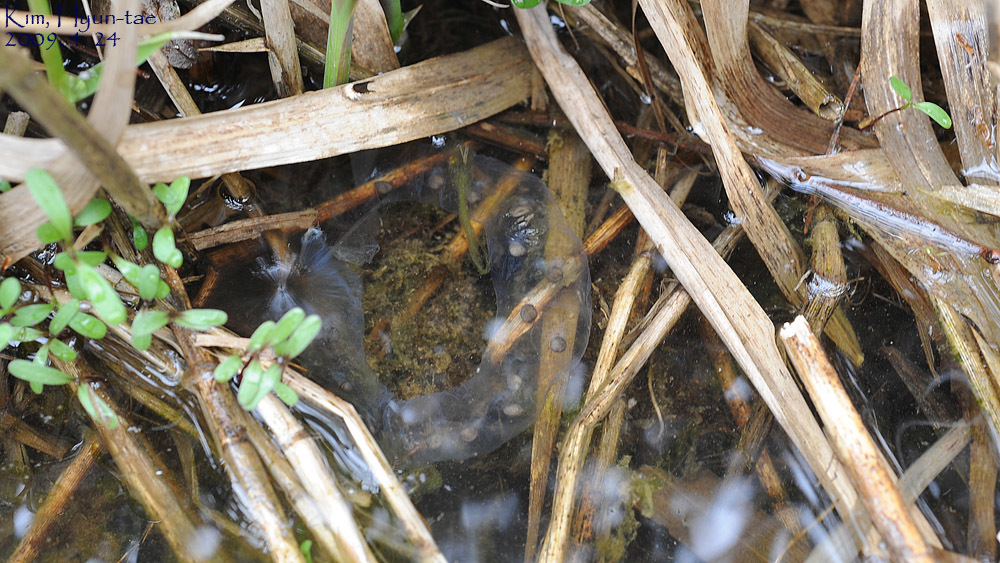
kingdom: Animalia
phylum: Chordata
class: Amphibia
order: Caudata
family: Hynobiidae
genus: Hynobius
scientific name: Hynobius leechii
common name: Gensan salamander
